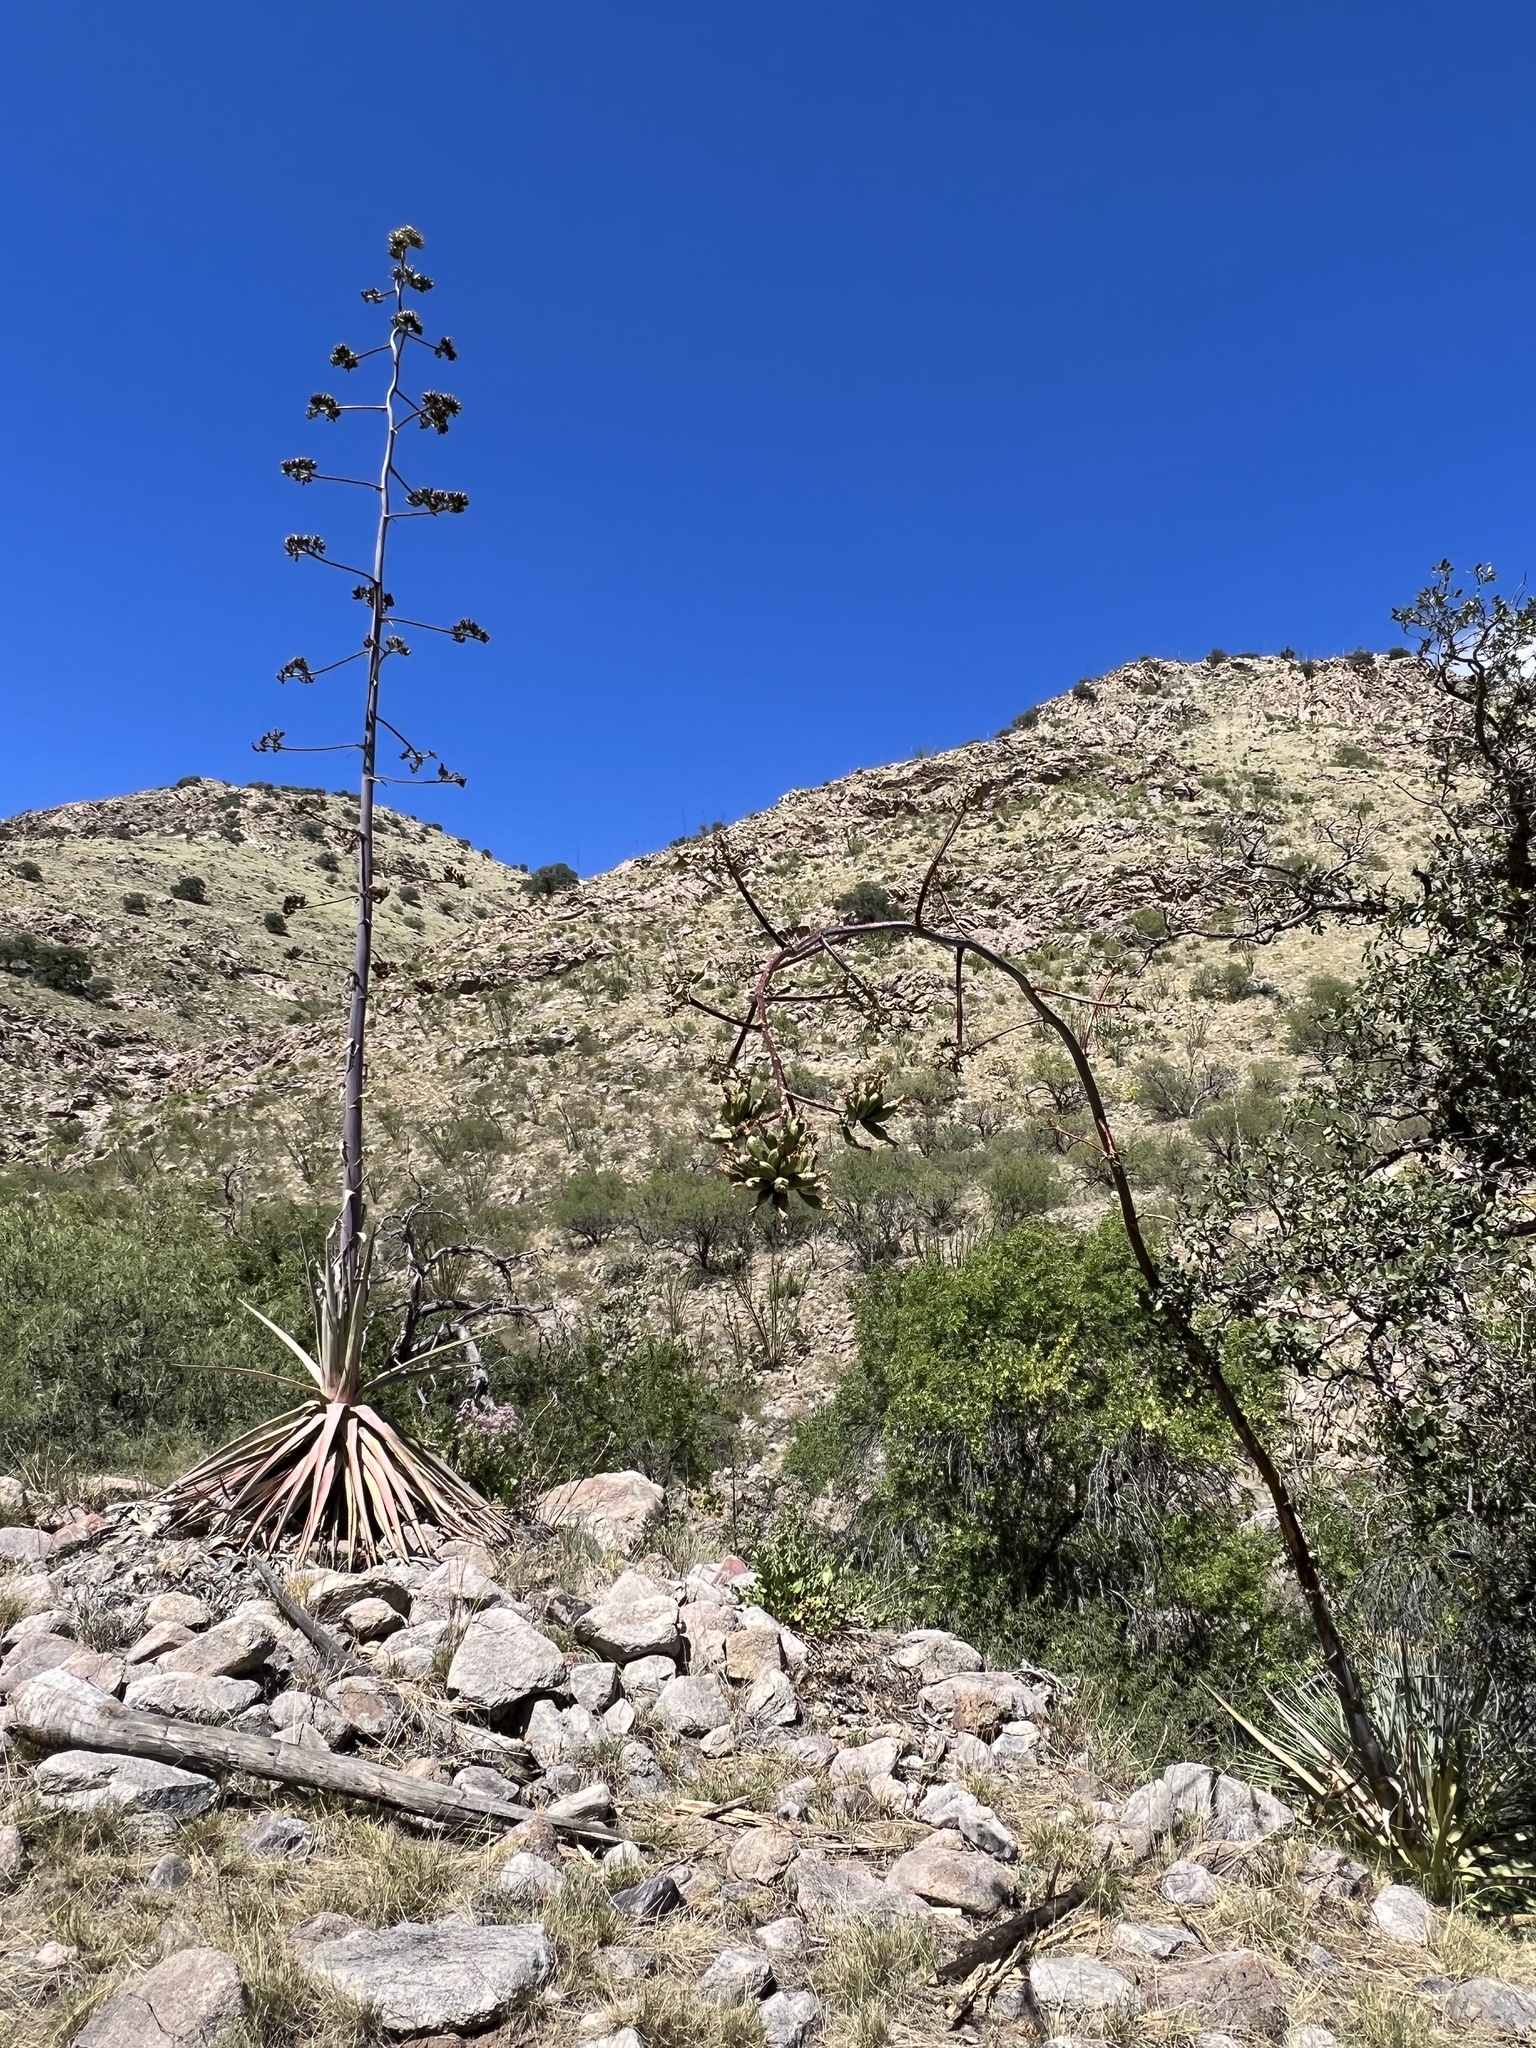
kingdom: Plantae
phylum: Tracheophyta
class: Liliopsida
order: Asparagales
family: Asparagaceae
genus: Agave
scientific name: Agave palmeri
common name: Palmer agave
